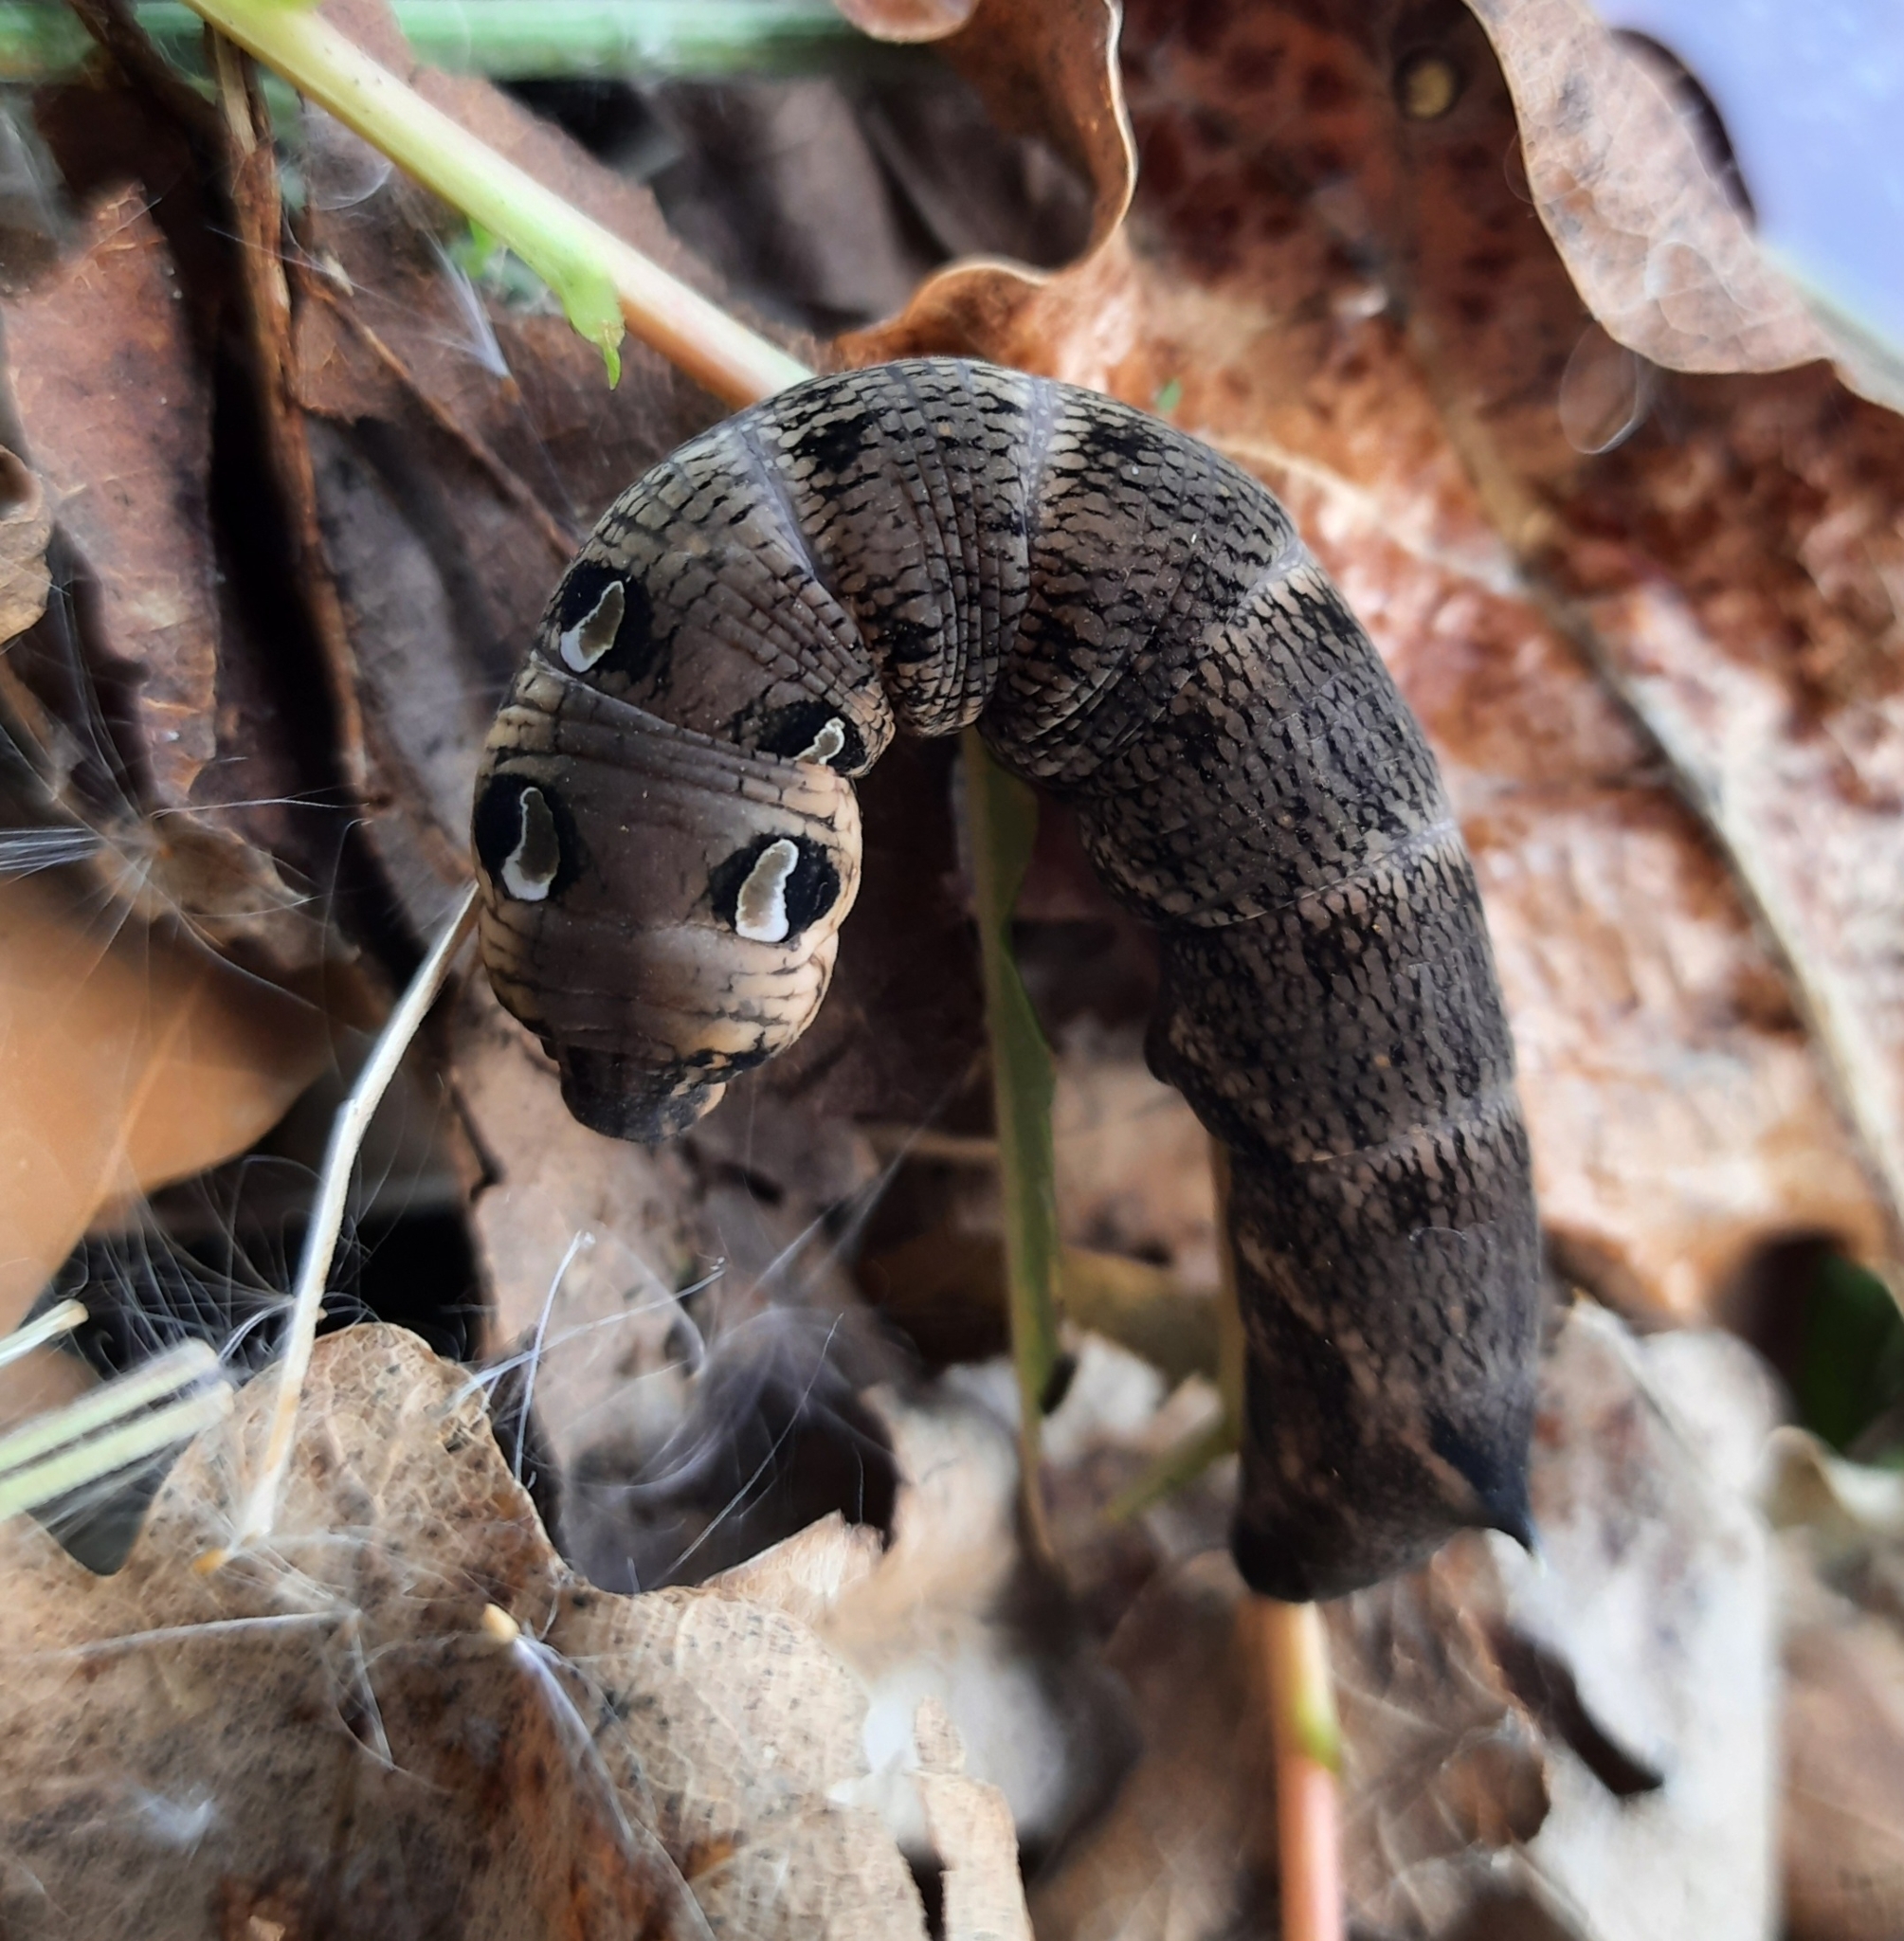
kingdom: Animalia
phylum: Arthropoda
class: Insecta
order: Lepidoptera
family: Sphingidae
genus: Deilephila
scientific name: Deilephila elpenor
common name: Elephant hawk-moth
